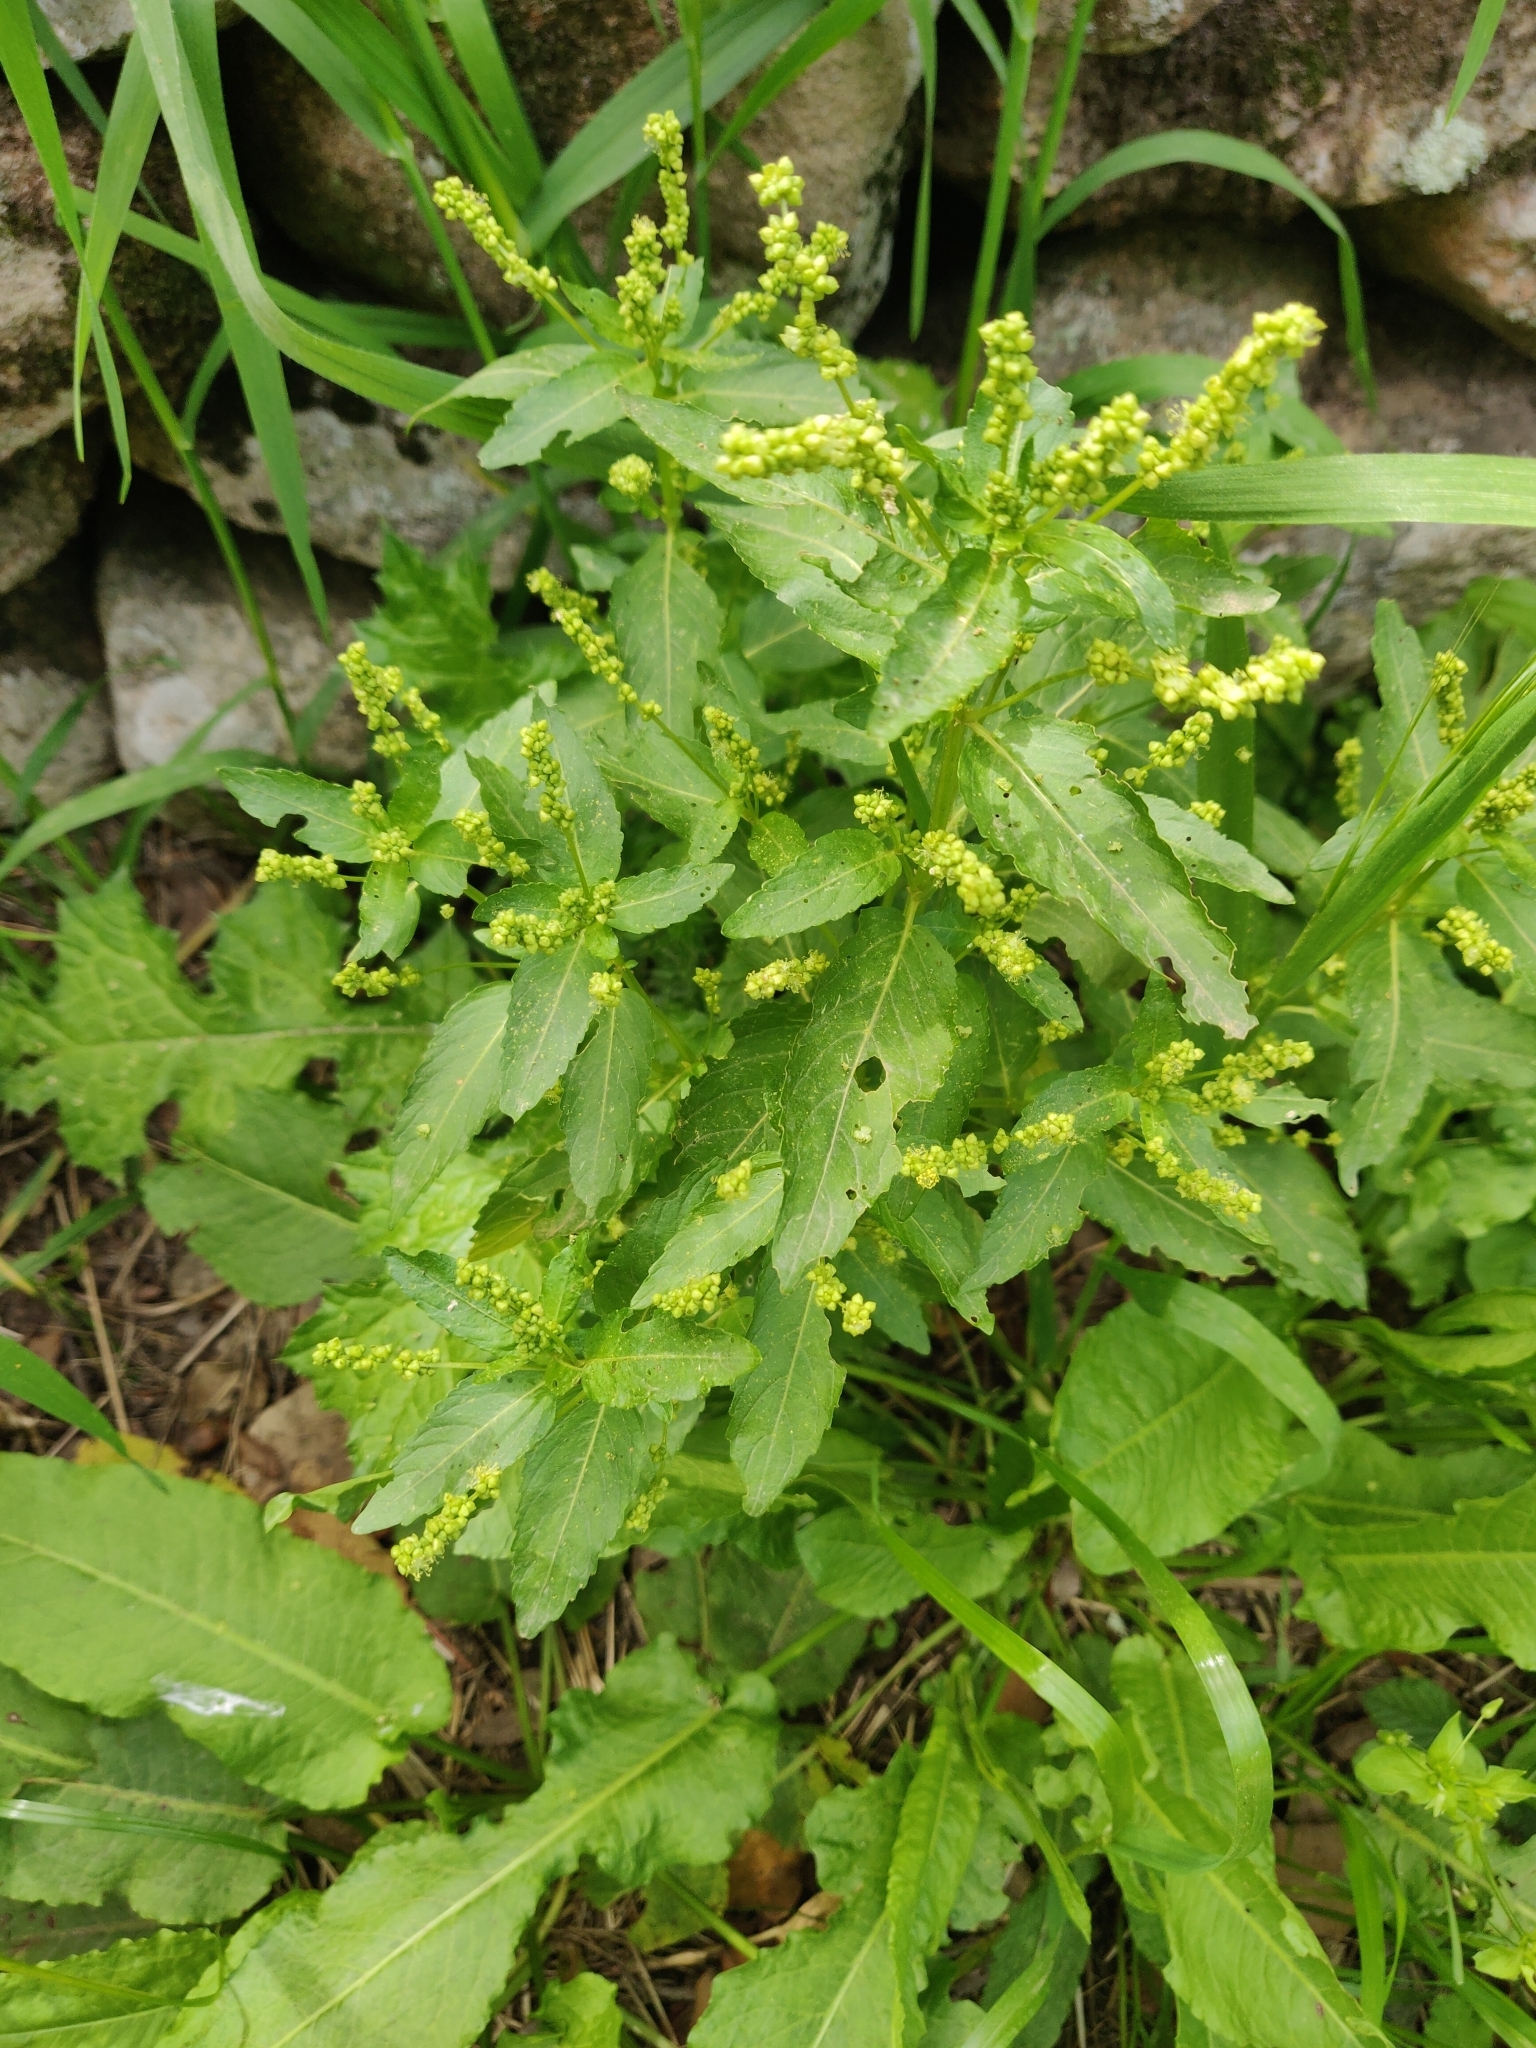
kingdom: Plantae
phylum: Tracheophyta
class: Magnoliopsida
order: Malpighiales
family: Euphorbiaceae
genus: Mercurialis
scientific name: Mercurialis annua
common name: Annual mercury
